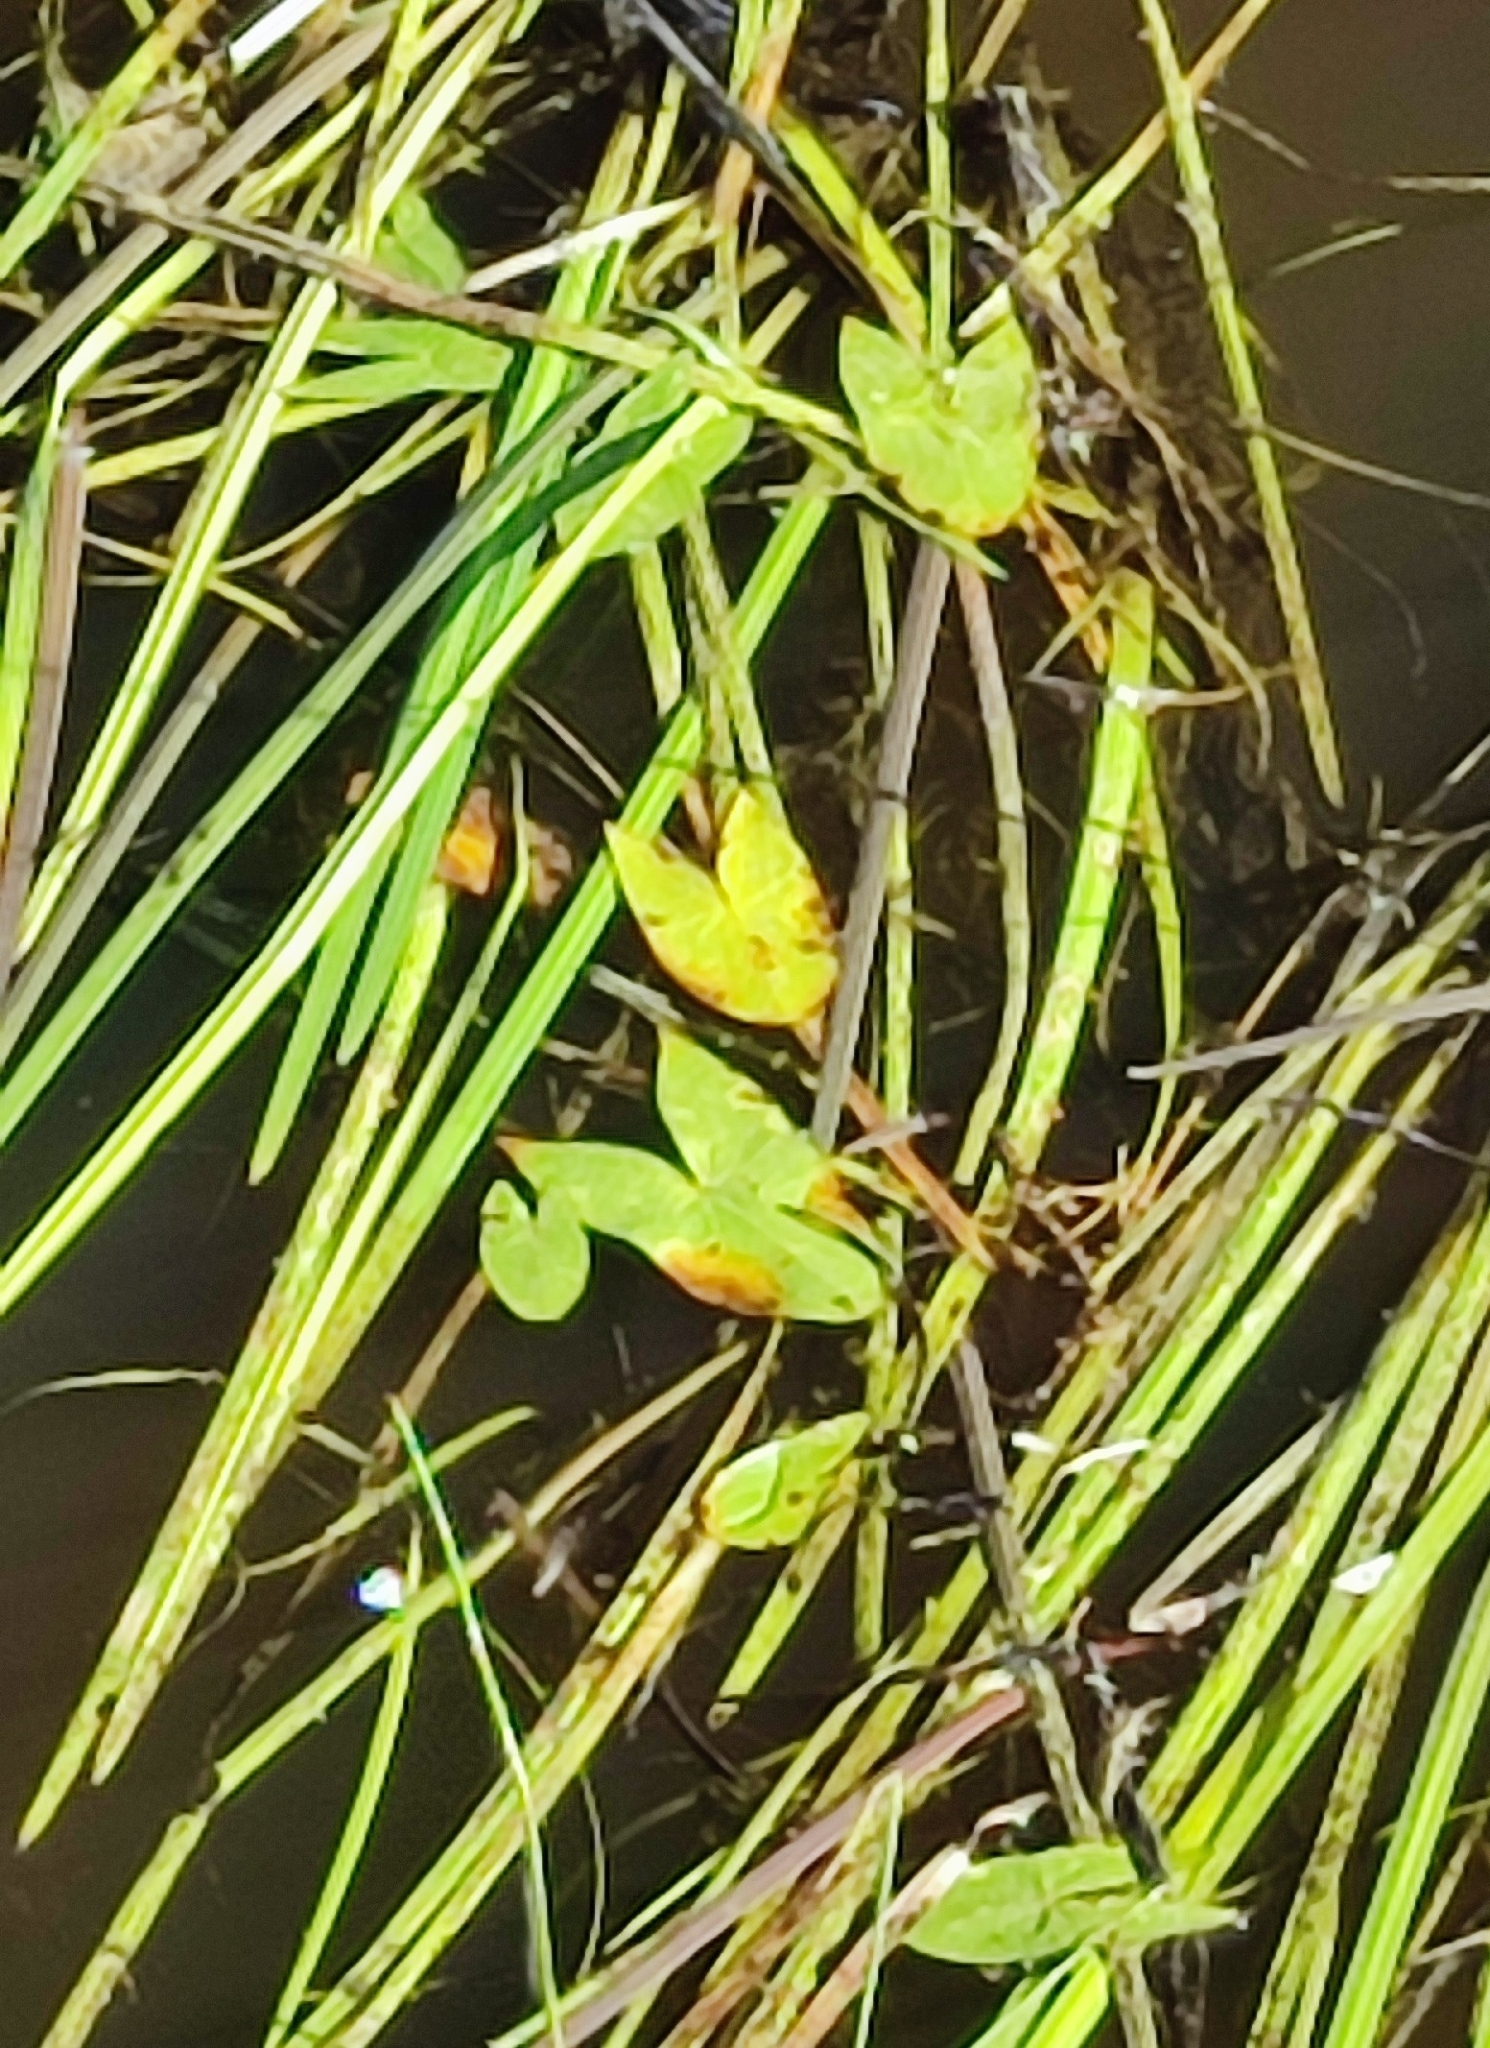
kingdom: Plantae
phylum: Tracheophyta
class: Liliopsida
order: Alismatales
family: Alismataceae
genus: Sagittaria
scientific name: Sagittaria sagittifolia
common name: Arrowhead
